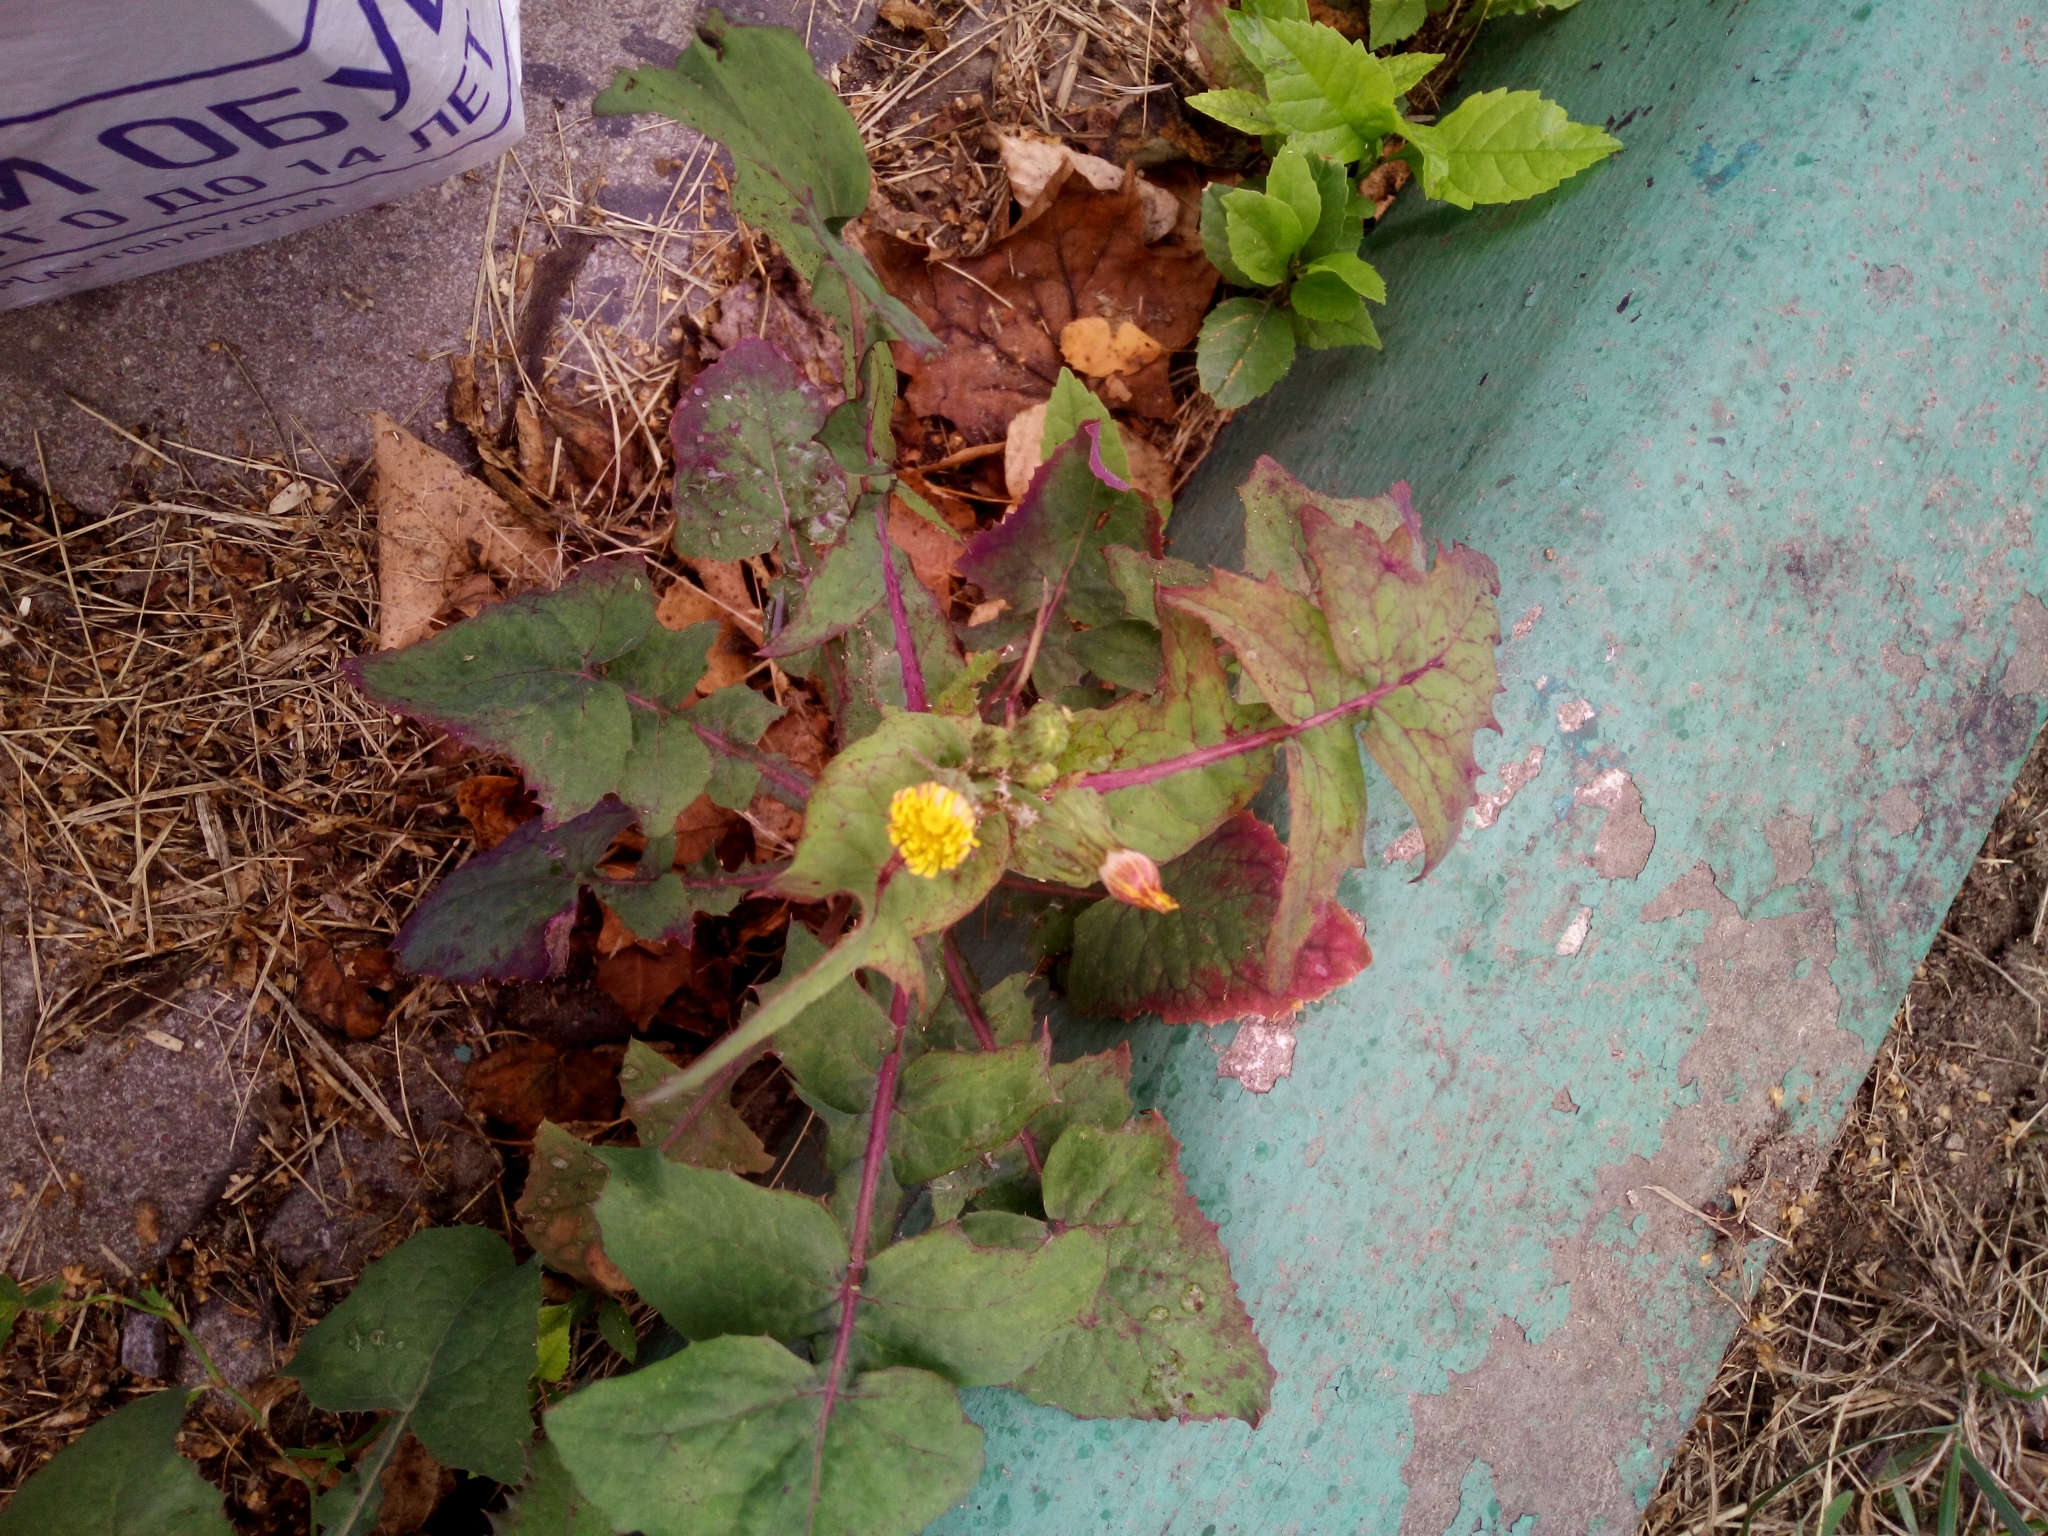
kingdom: Plantae
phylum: Tracheophyta
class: Magnoliopsida
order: Asterales
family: Asteraceae
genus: Sonchus
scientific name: Sonchus oleraceus
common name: Common sowthistle
